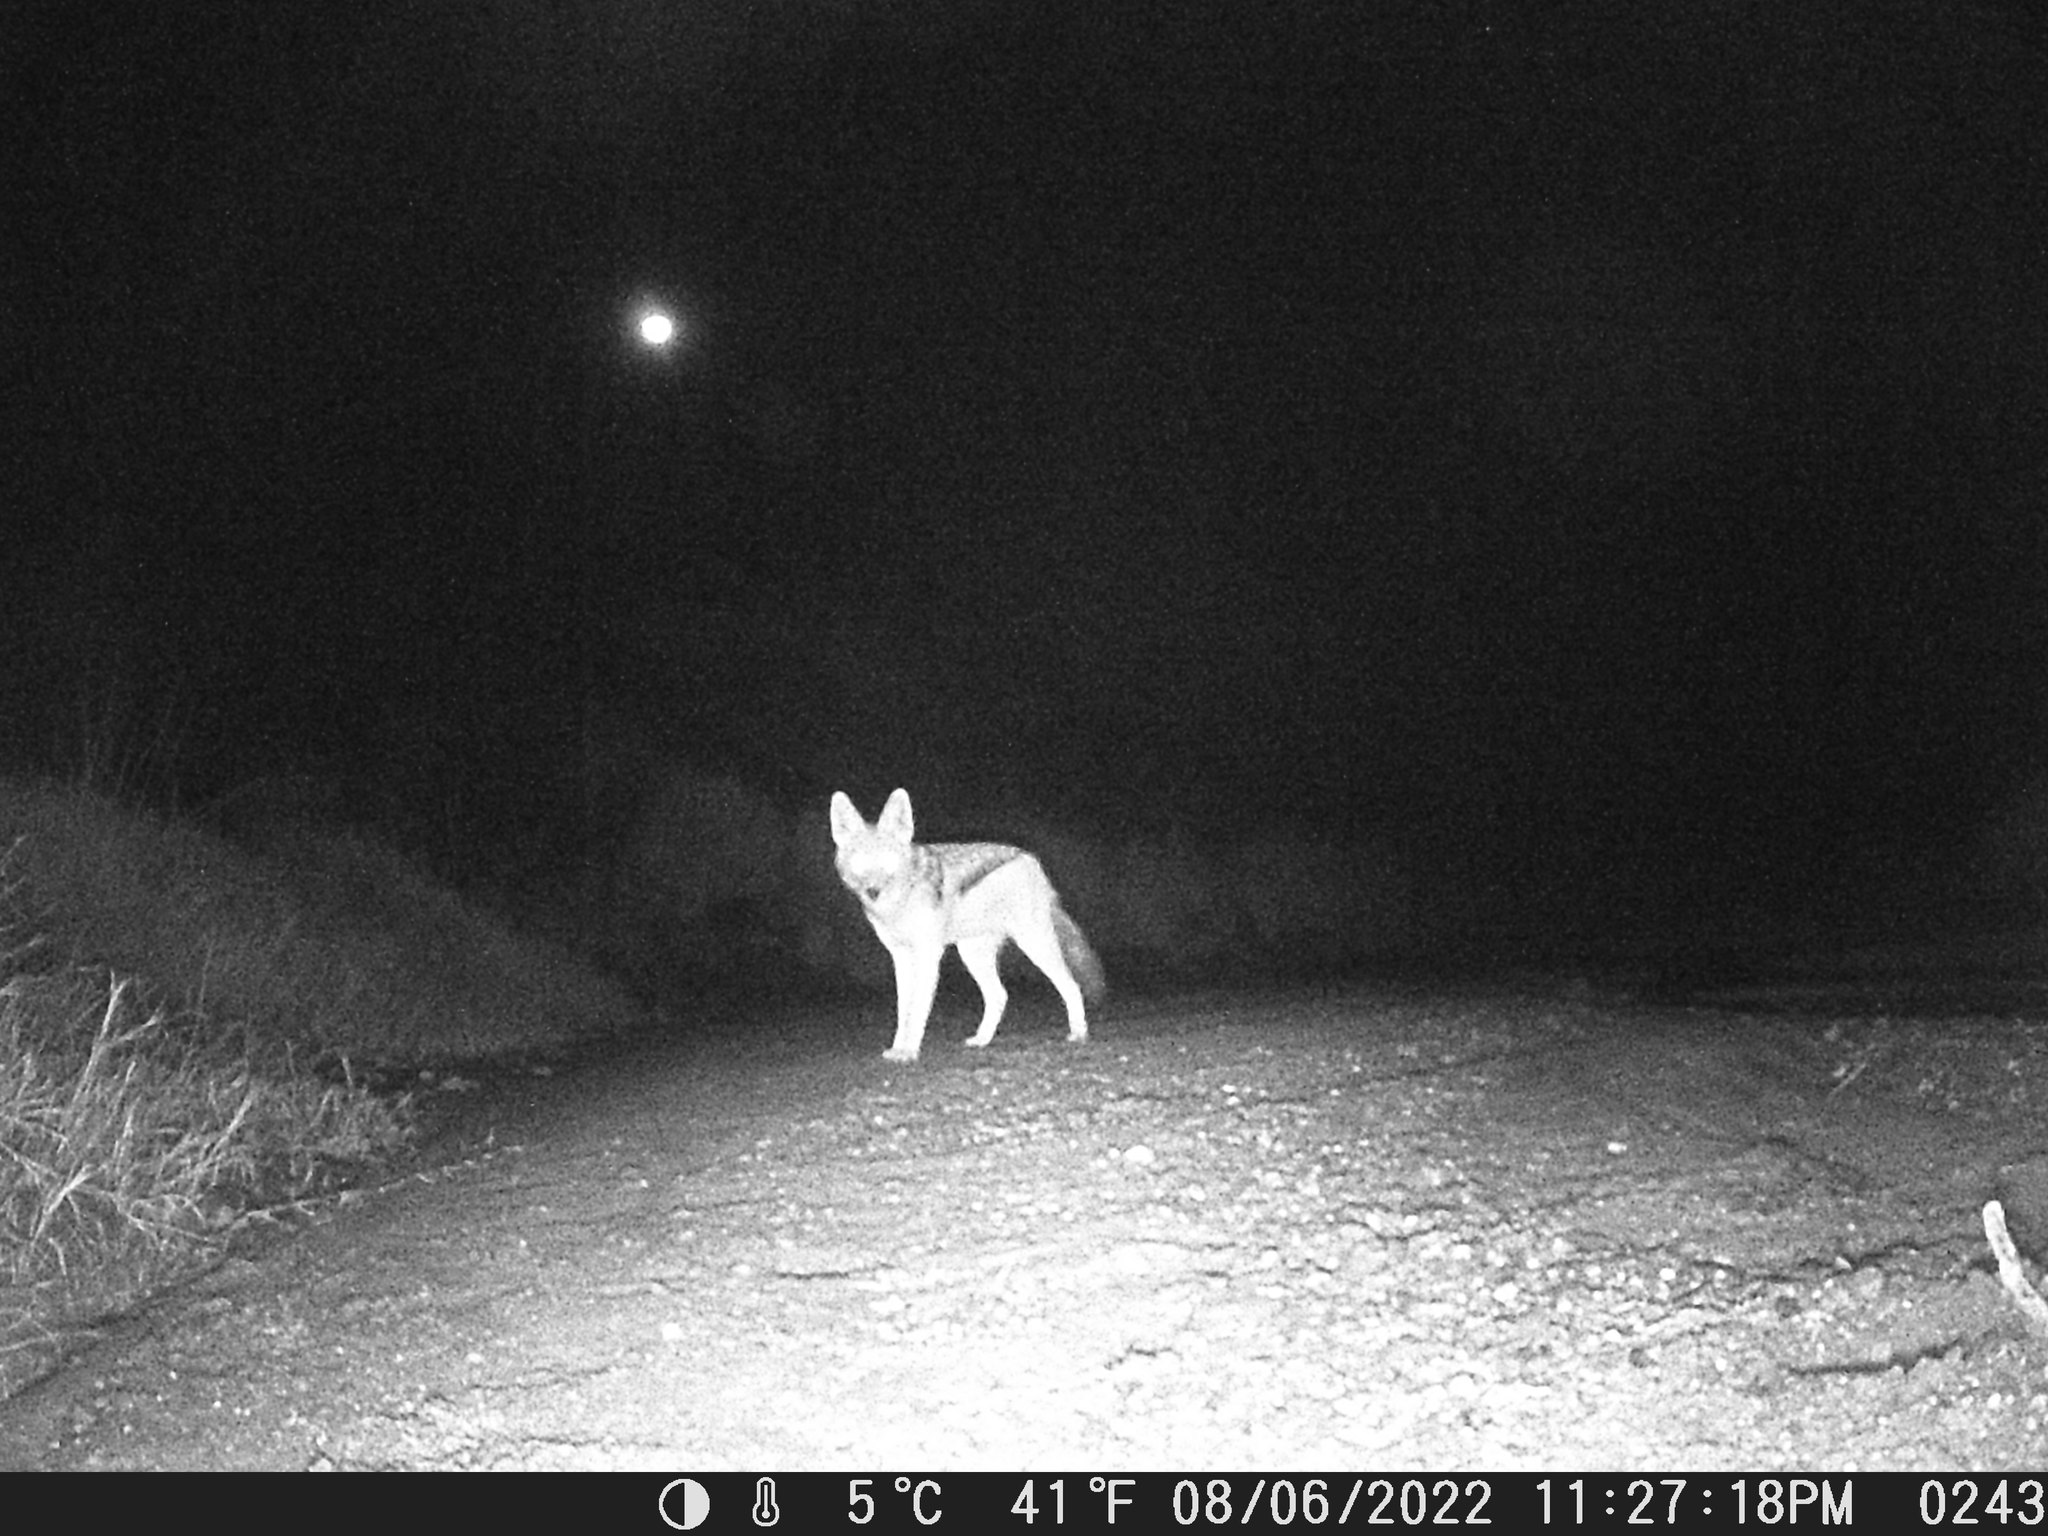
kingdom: Animalia
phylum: Chordata
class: Mammalia
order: Carnivora
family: Canidae
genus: Lupulella
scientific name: Lupulella
